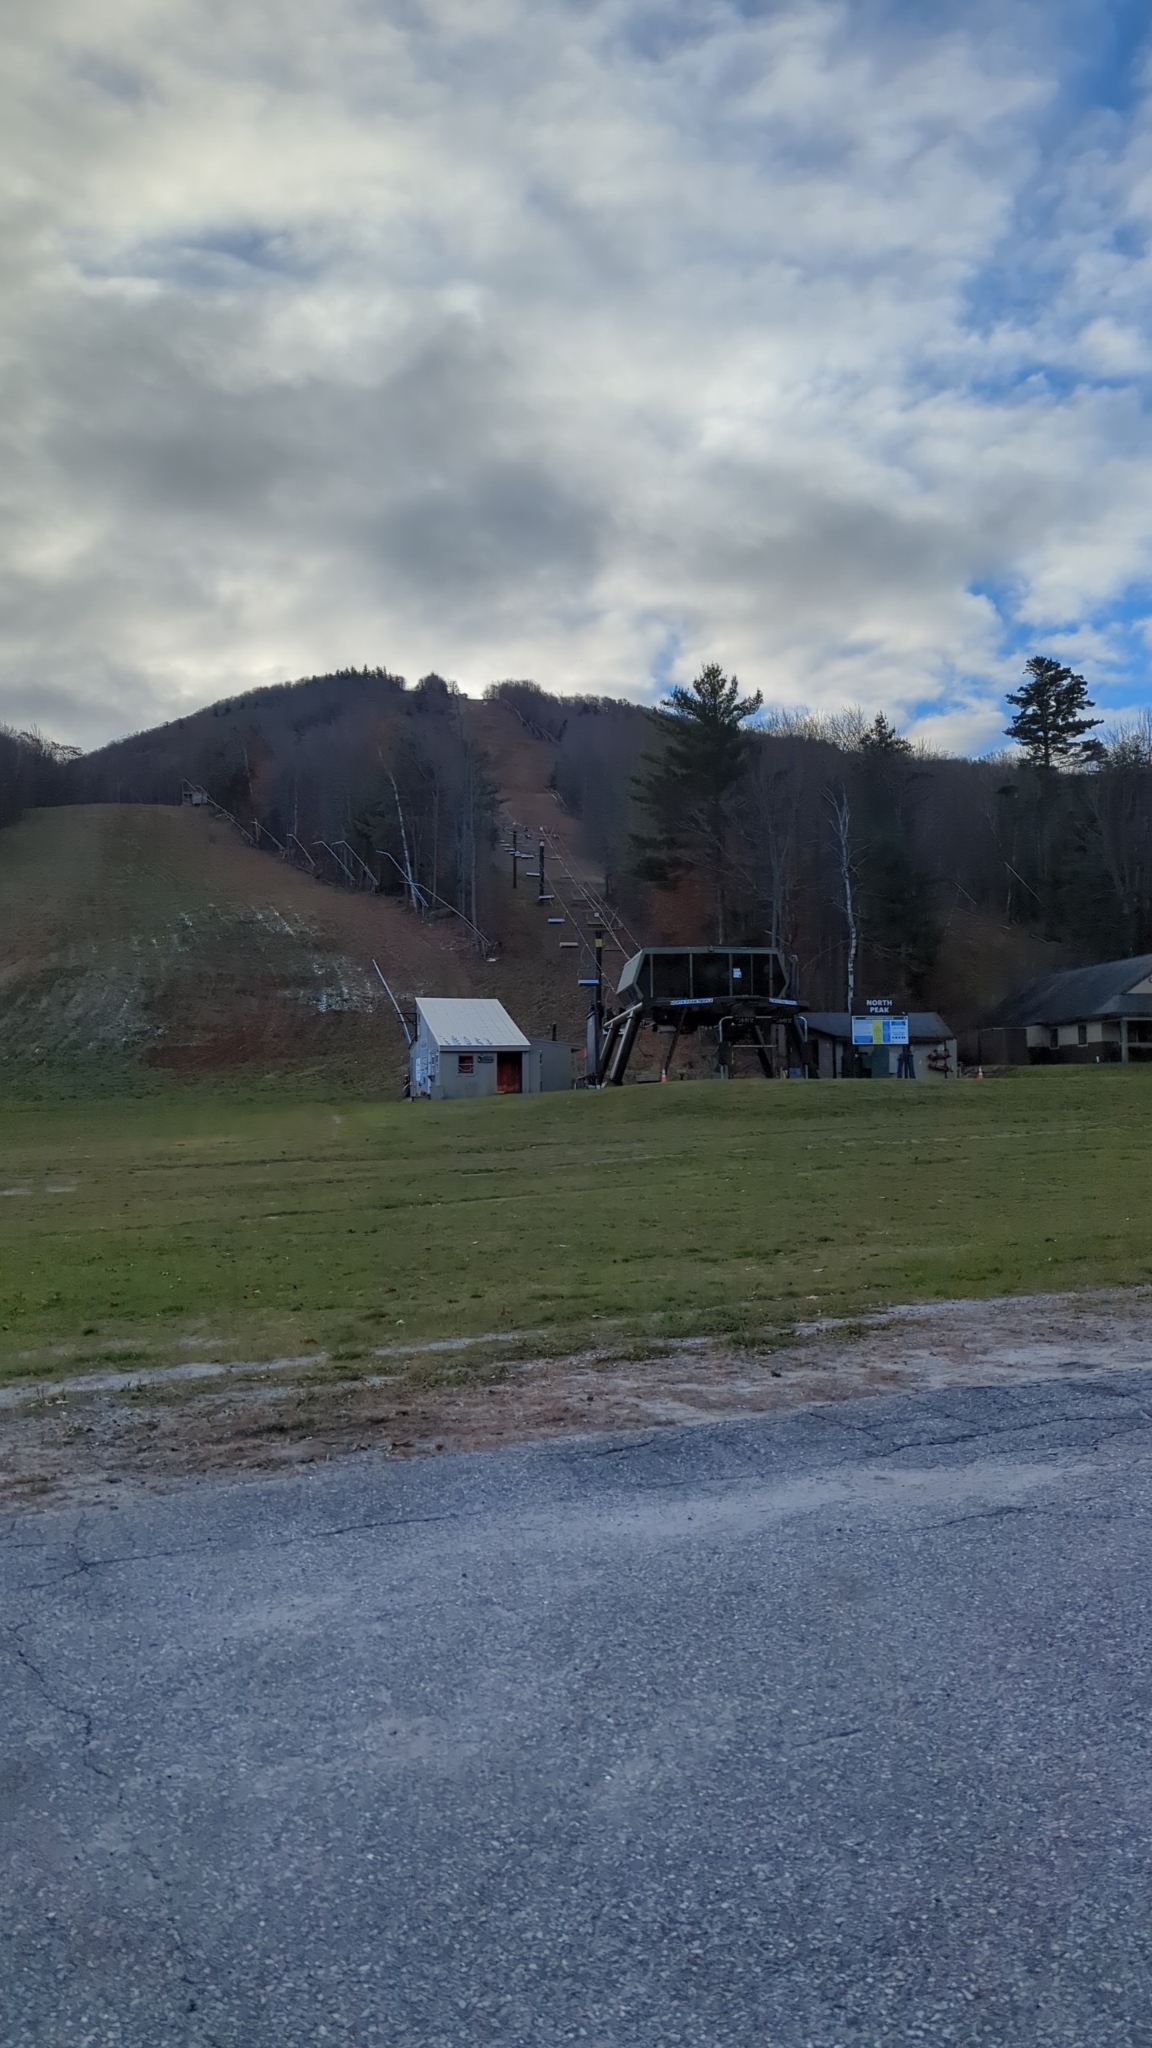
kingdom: Plantae
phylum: Tracheophyta
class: Pinopsida
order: Pinales
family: Pinaceae
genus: Pinus
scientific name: Pinus strobus
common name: Weymouth pine
